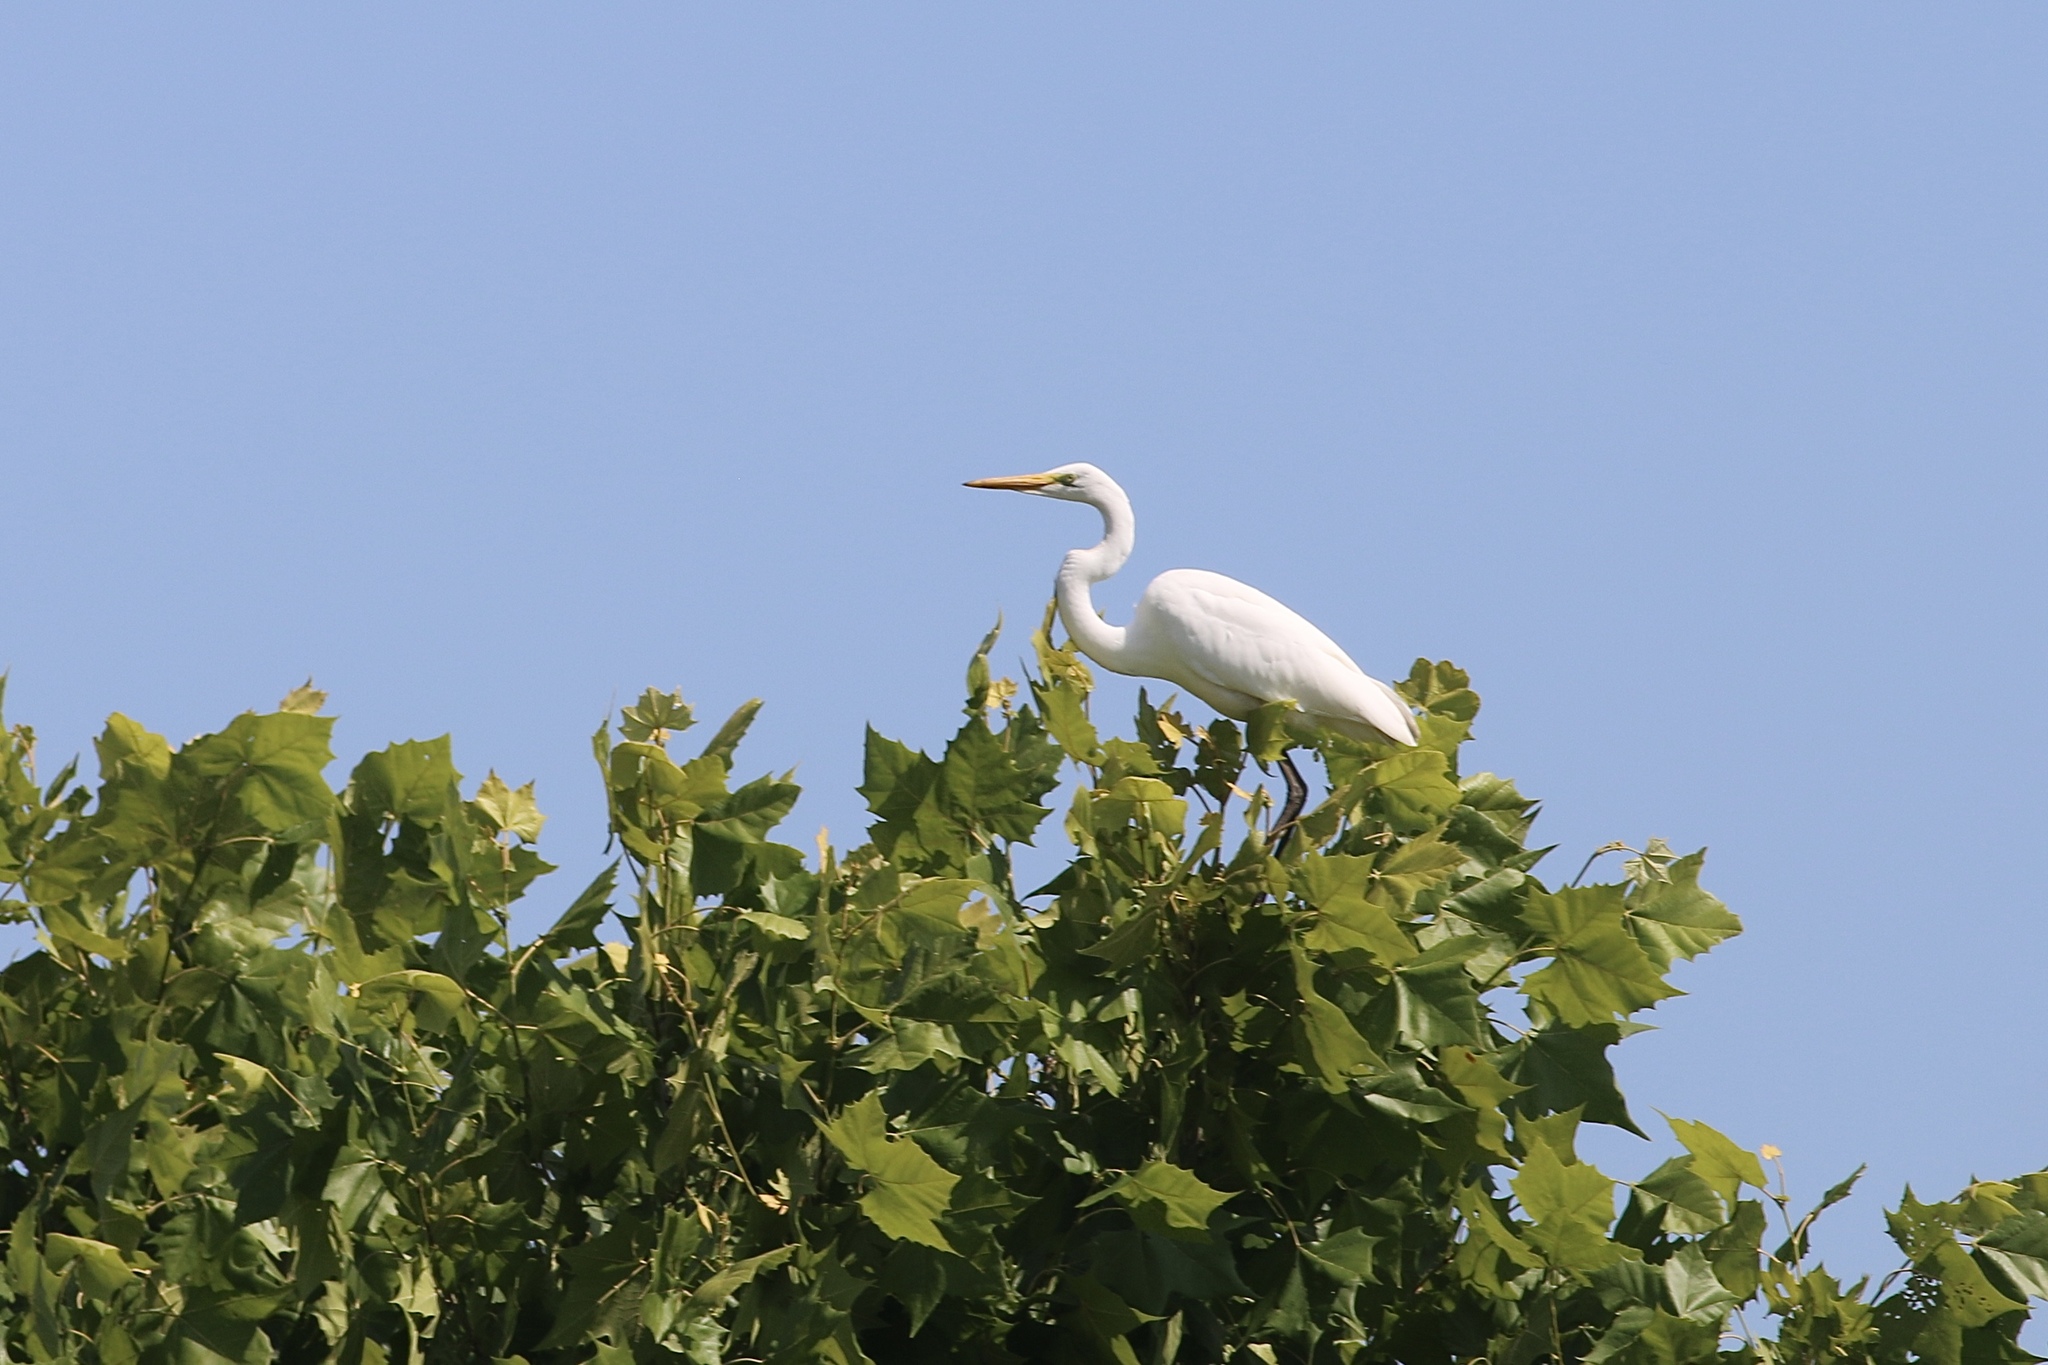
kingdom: Animalia
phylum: Chordata
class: Aves
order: Pelecaniformes
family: Ardeidae
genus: Ardea
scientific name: Ardea alba
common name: Great egret
